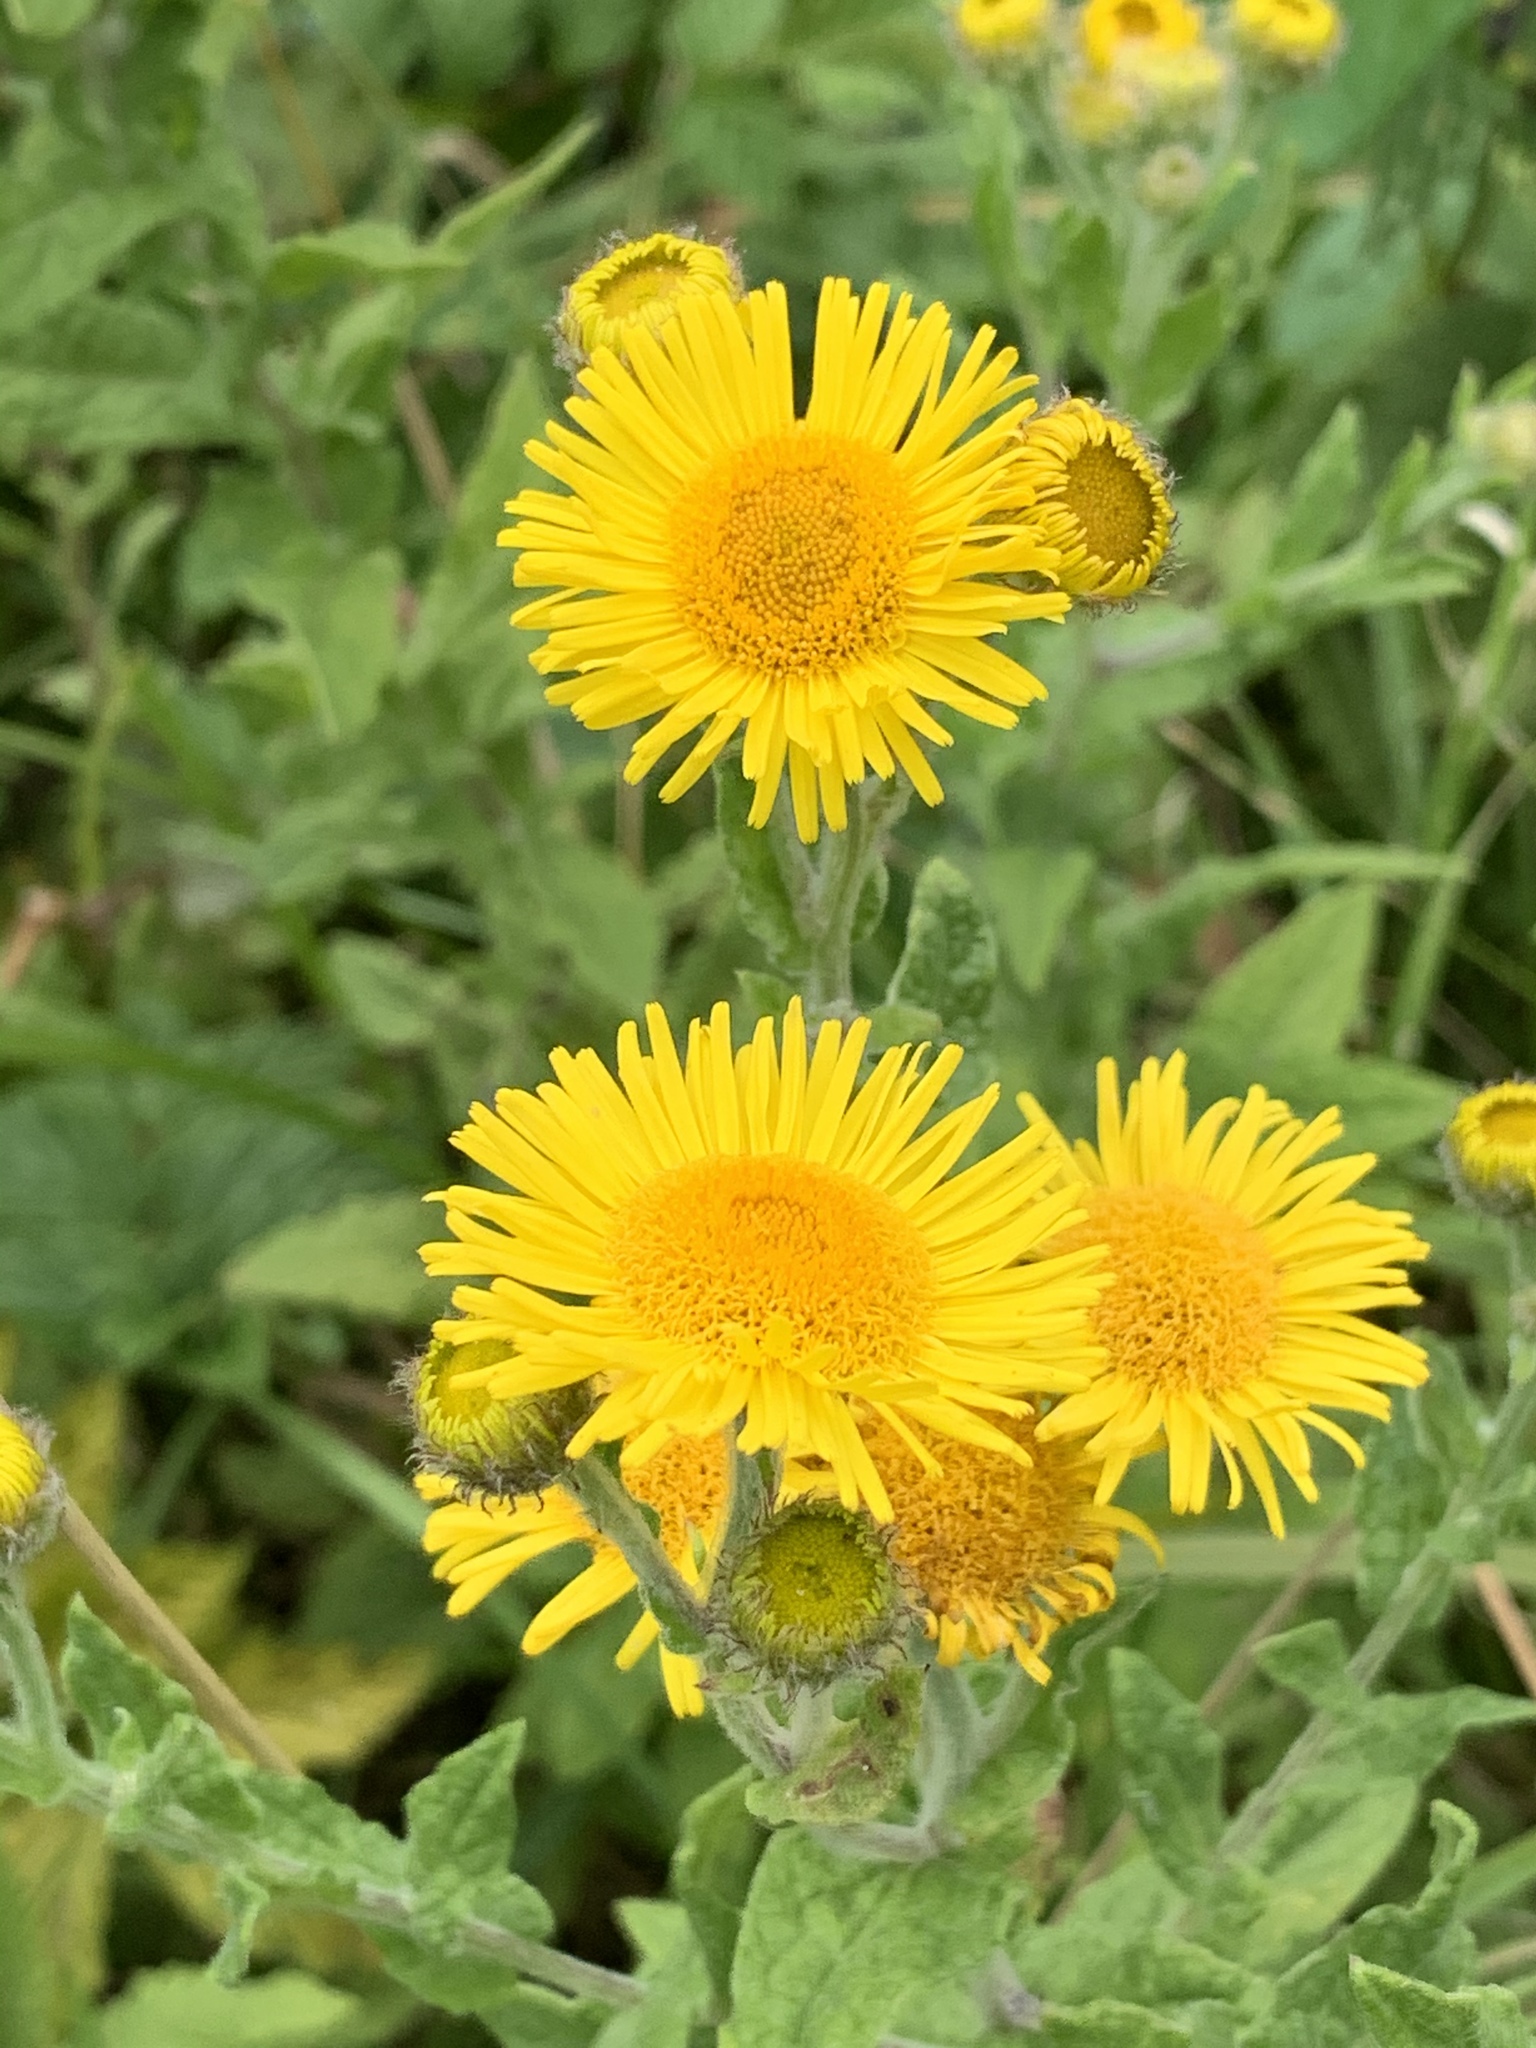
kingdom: Plantae
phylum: Tracheophyta
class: Magnoliopsida
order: Asterales
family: Asteraceae
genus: Pulicaria
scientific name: Pulicaria dysenterica
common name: Common fleabane
